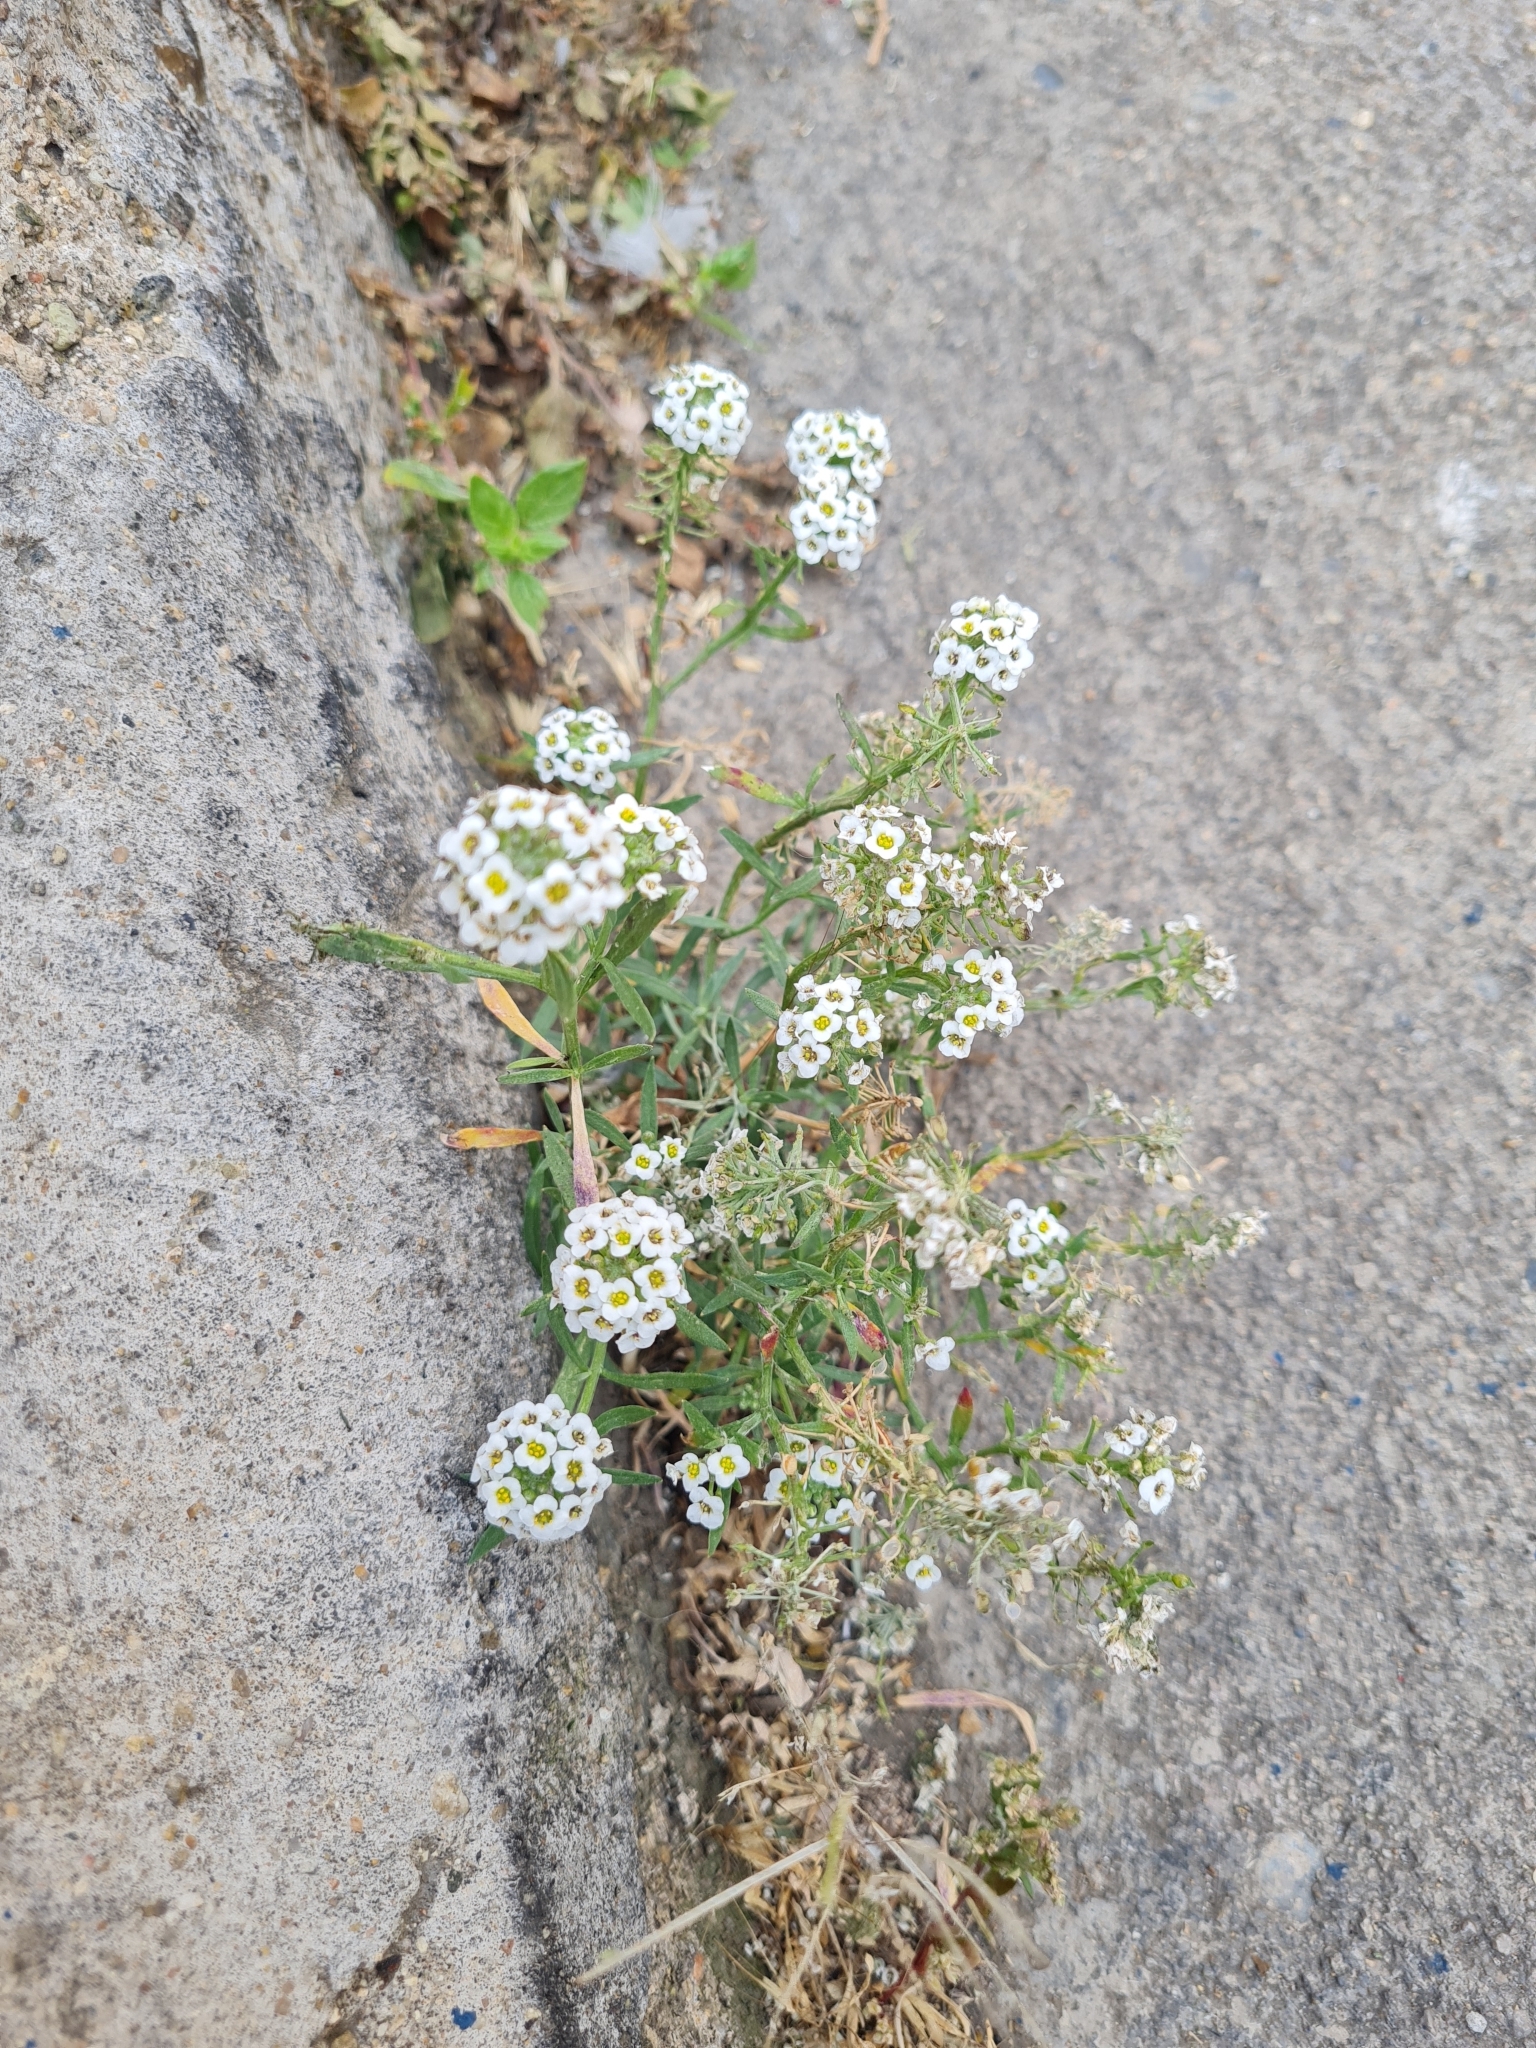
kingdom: Plantae
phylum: Tracheophyta
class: Magnoliopsida
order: Brassicales
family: Brassicaceae
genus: Lobularia
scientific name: Lobularia maritima
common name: Sweet alison
